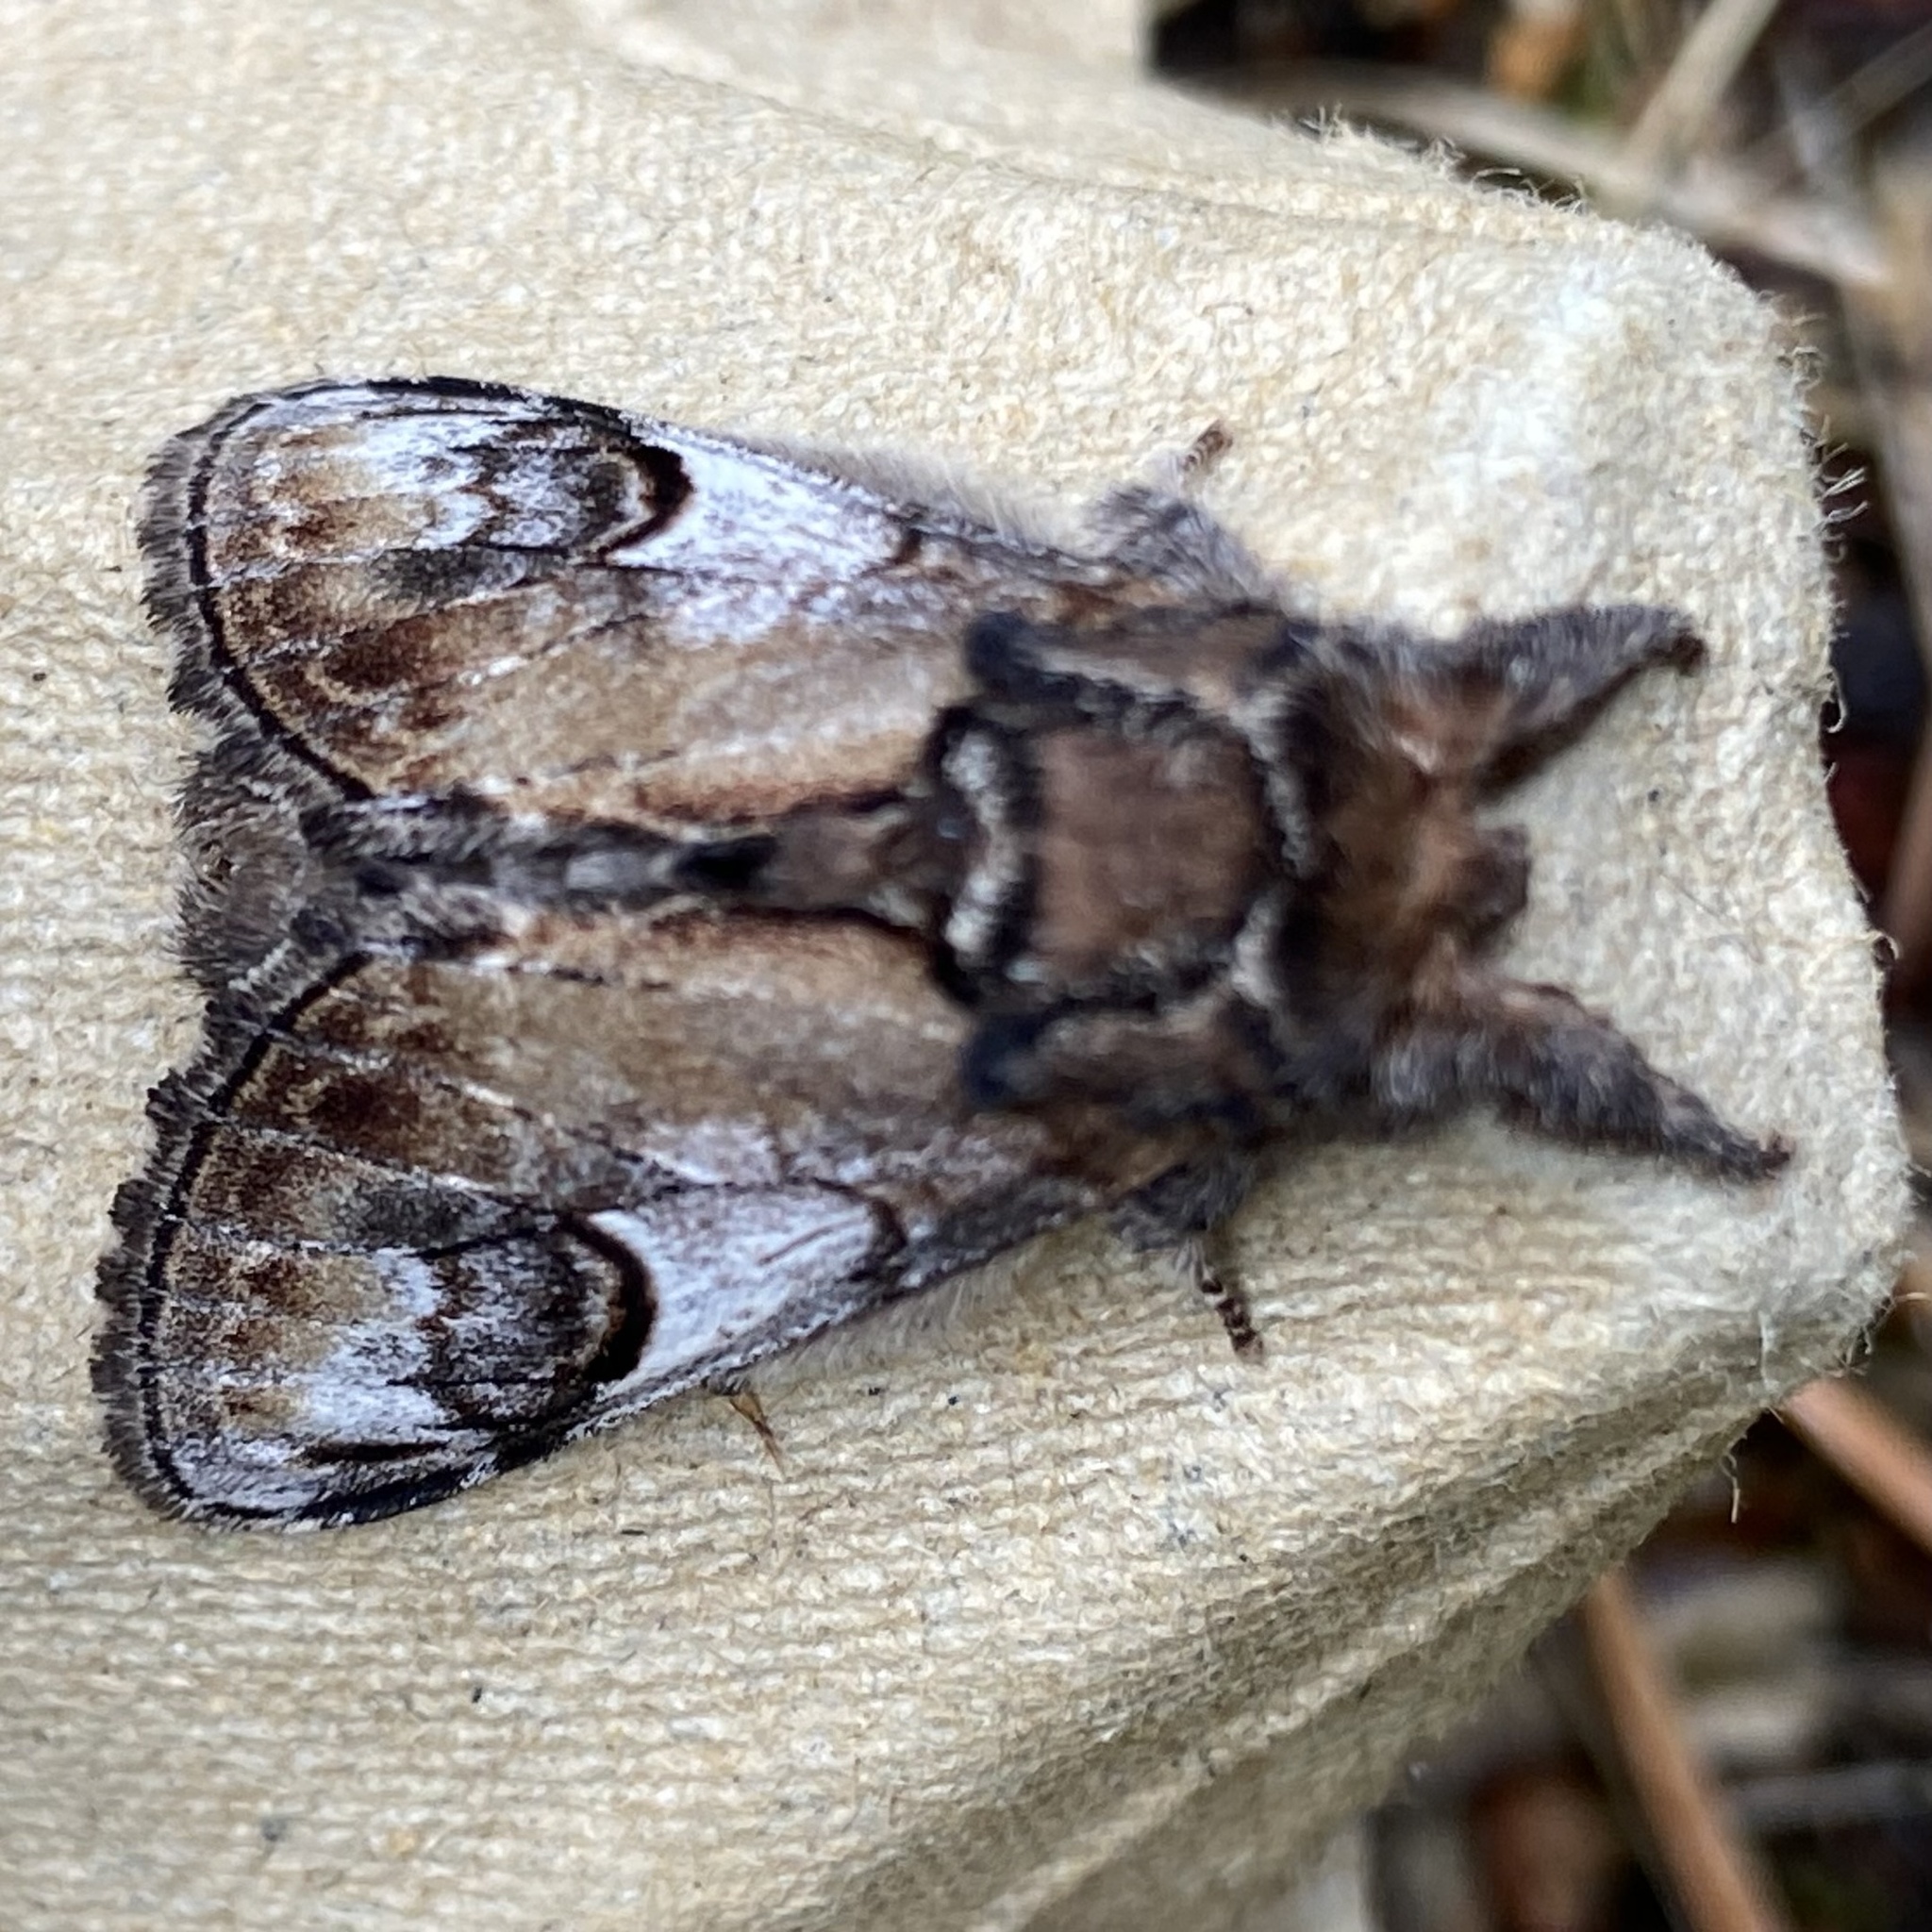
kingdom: Animalia
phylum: Arthropoda
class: Insecta
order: Lepidoptera
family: Notodontidae
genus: Notodonta
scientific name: Notodonta ziczac
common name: Pebble prominent
